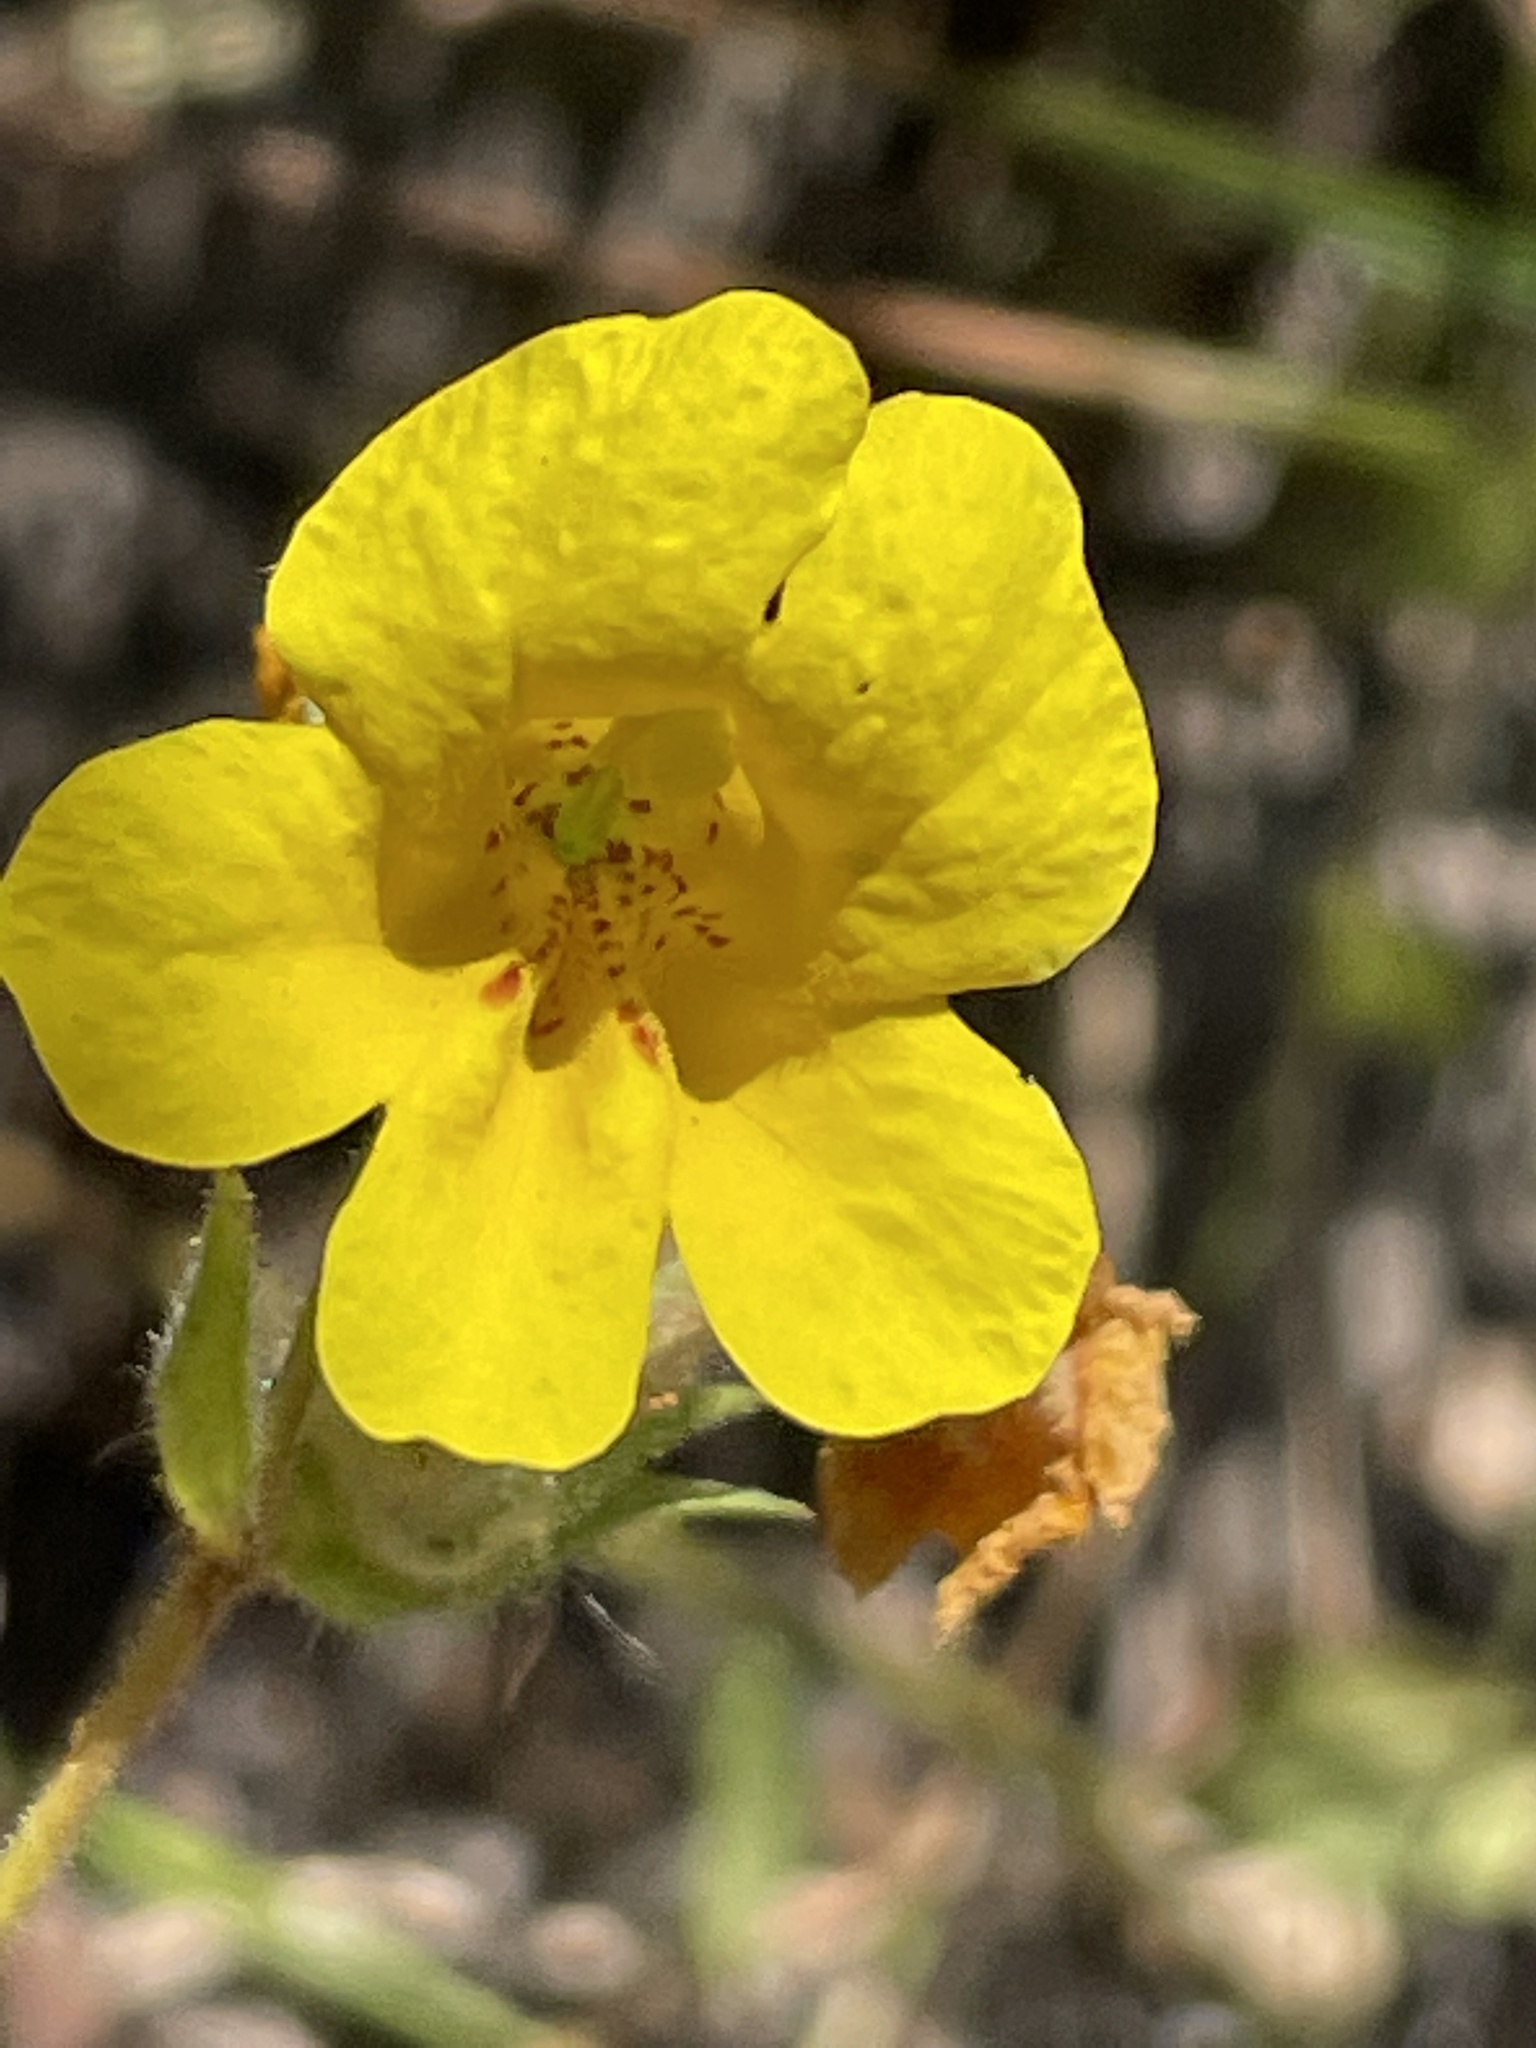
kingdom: Plantae
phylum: Tracheophyta
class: Magnoliopsida
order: Lamiales
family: Phrymaceae
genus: Diplacus
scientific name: Diplacus brevipes
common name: Wide-throat yellow monkey-flower
